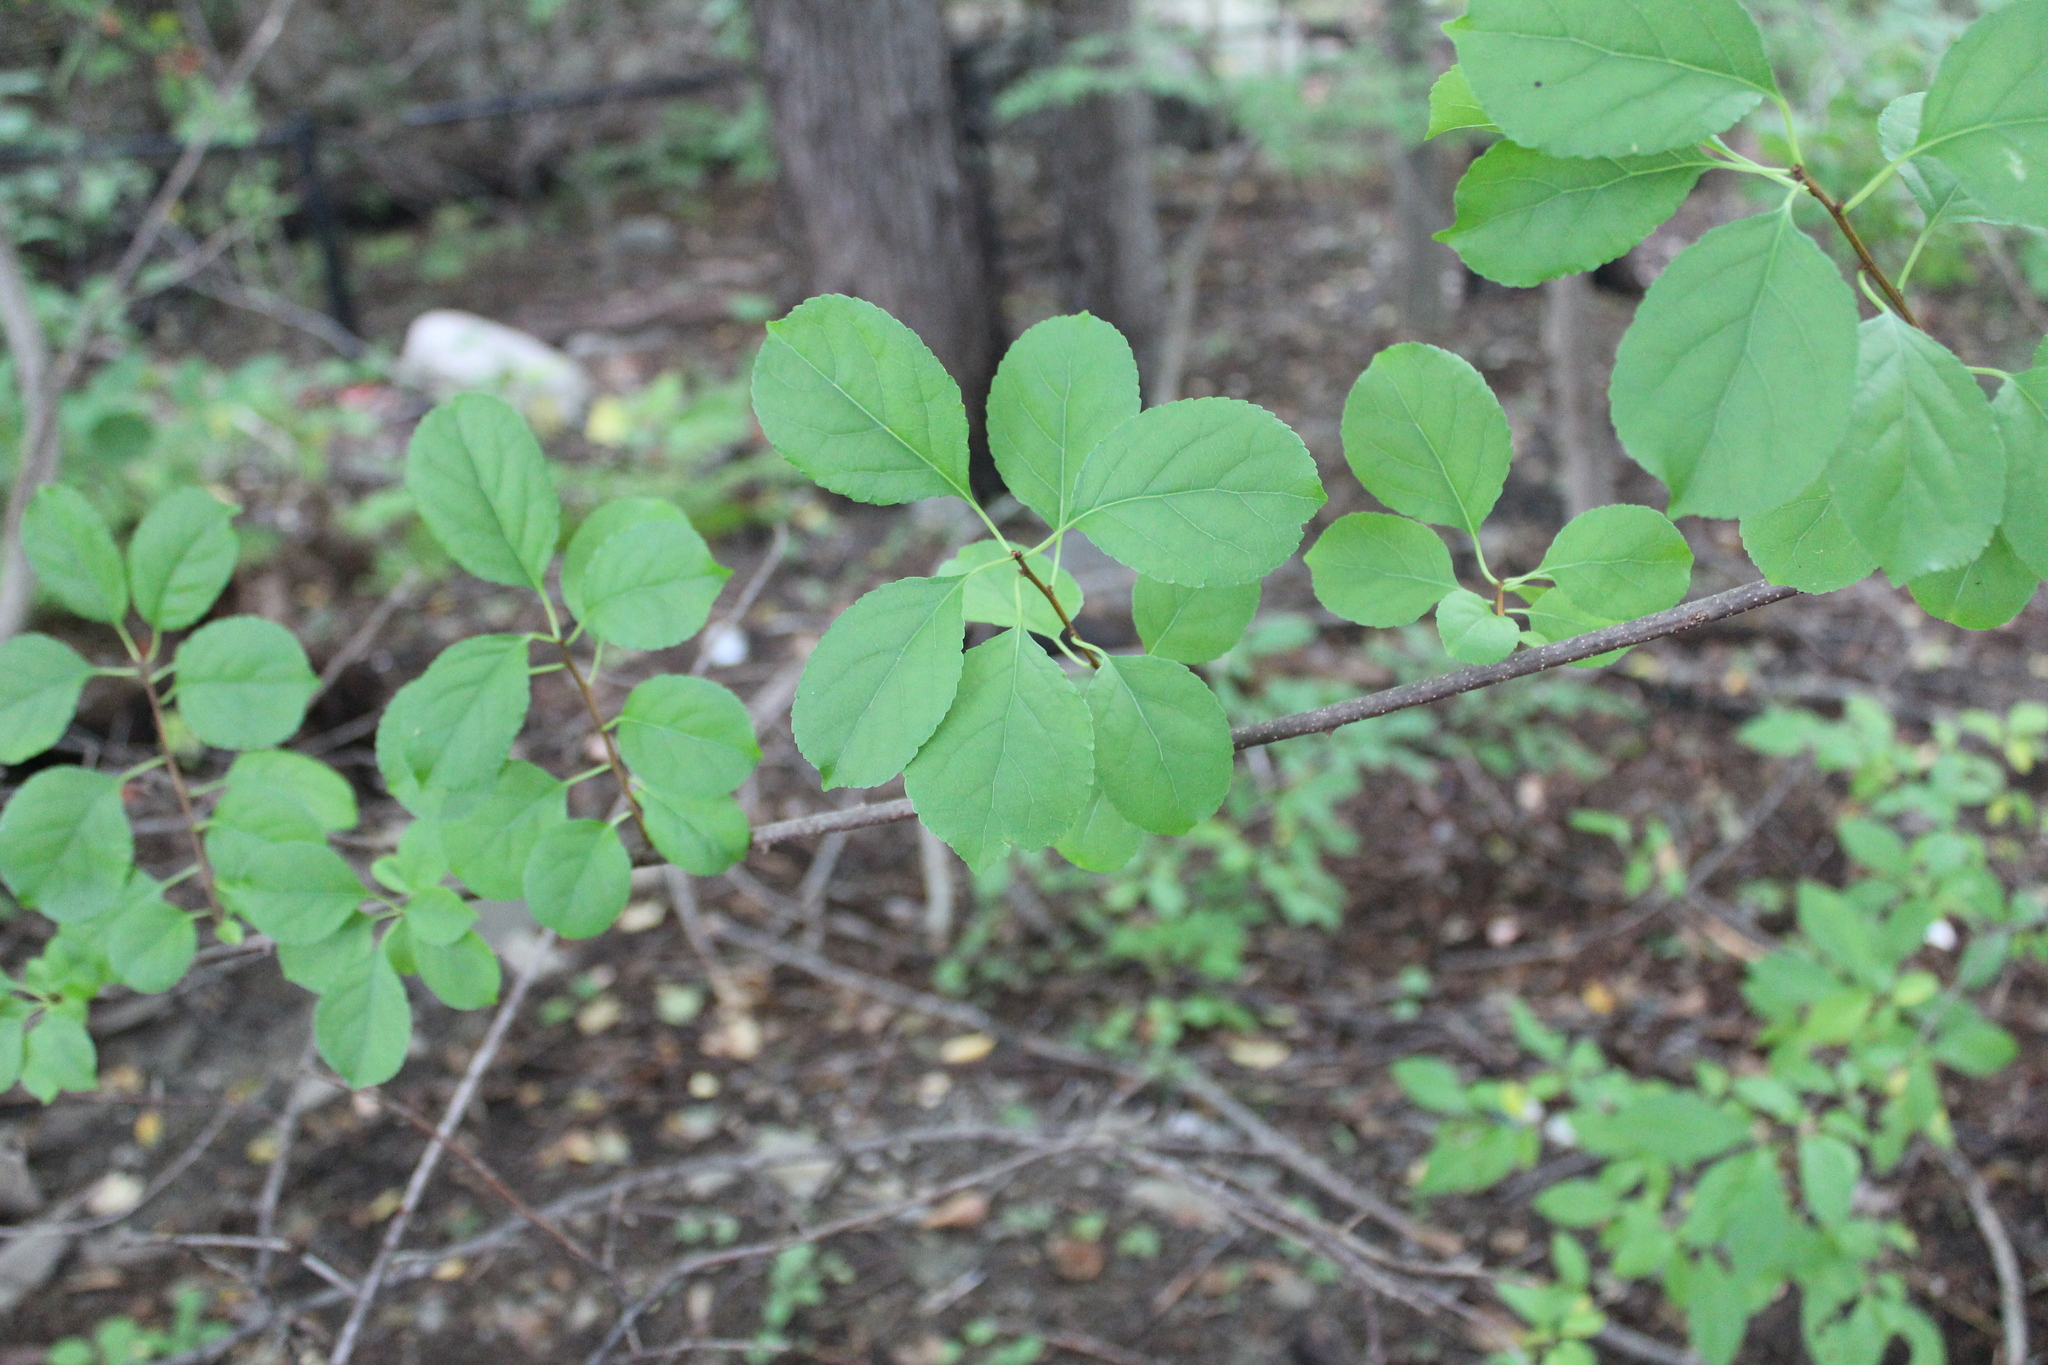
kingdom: Plantae
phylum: Tracheophyta
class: Magnoliopsida
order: Celastrales
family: Celastraceae
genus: Celastrus
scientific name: Celastrus orbiculatus
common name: Oriental bittersweet
